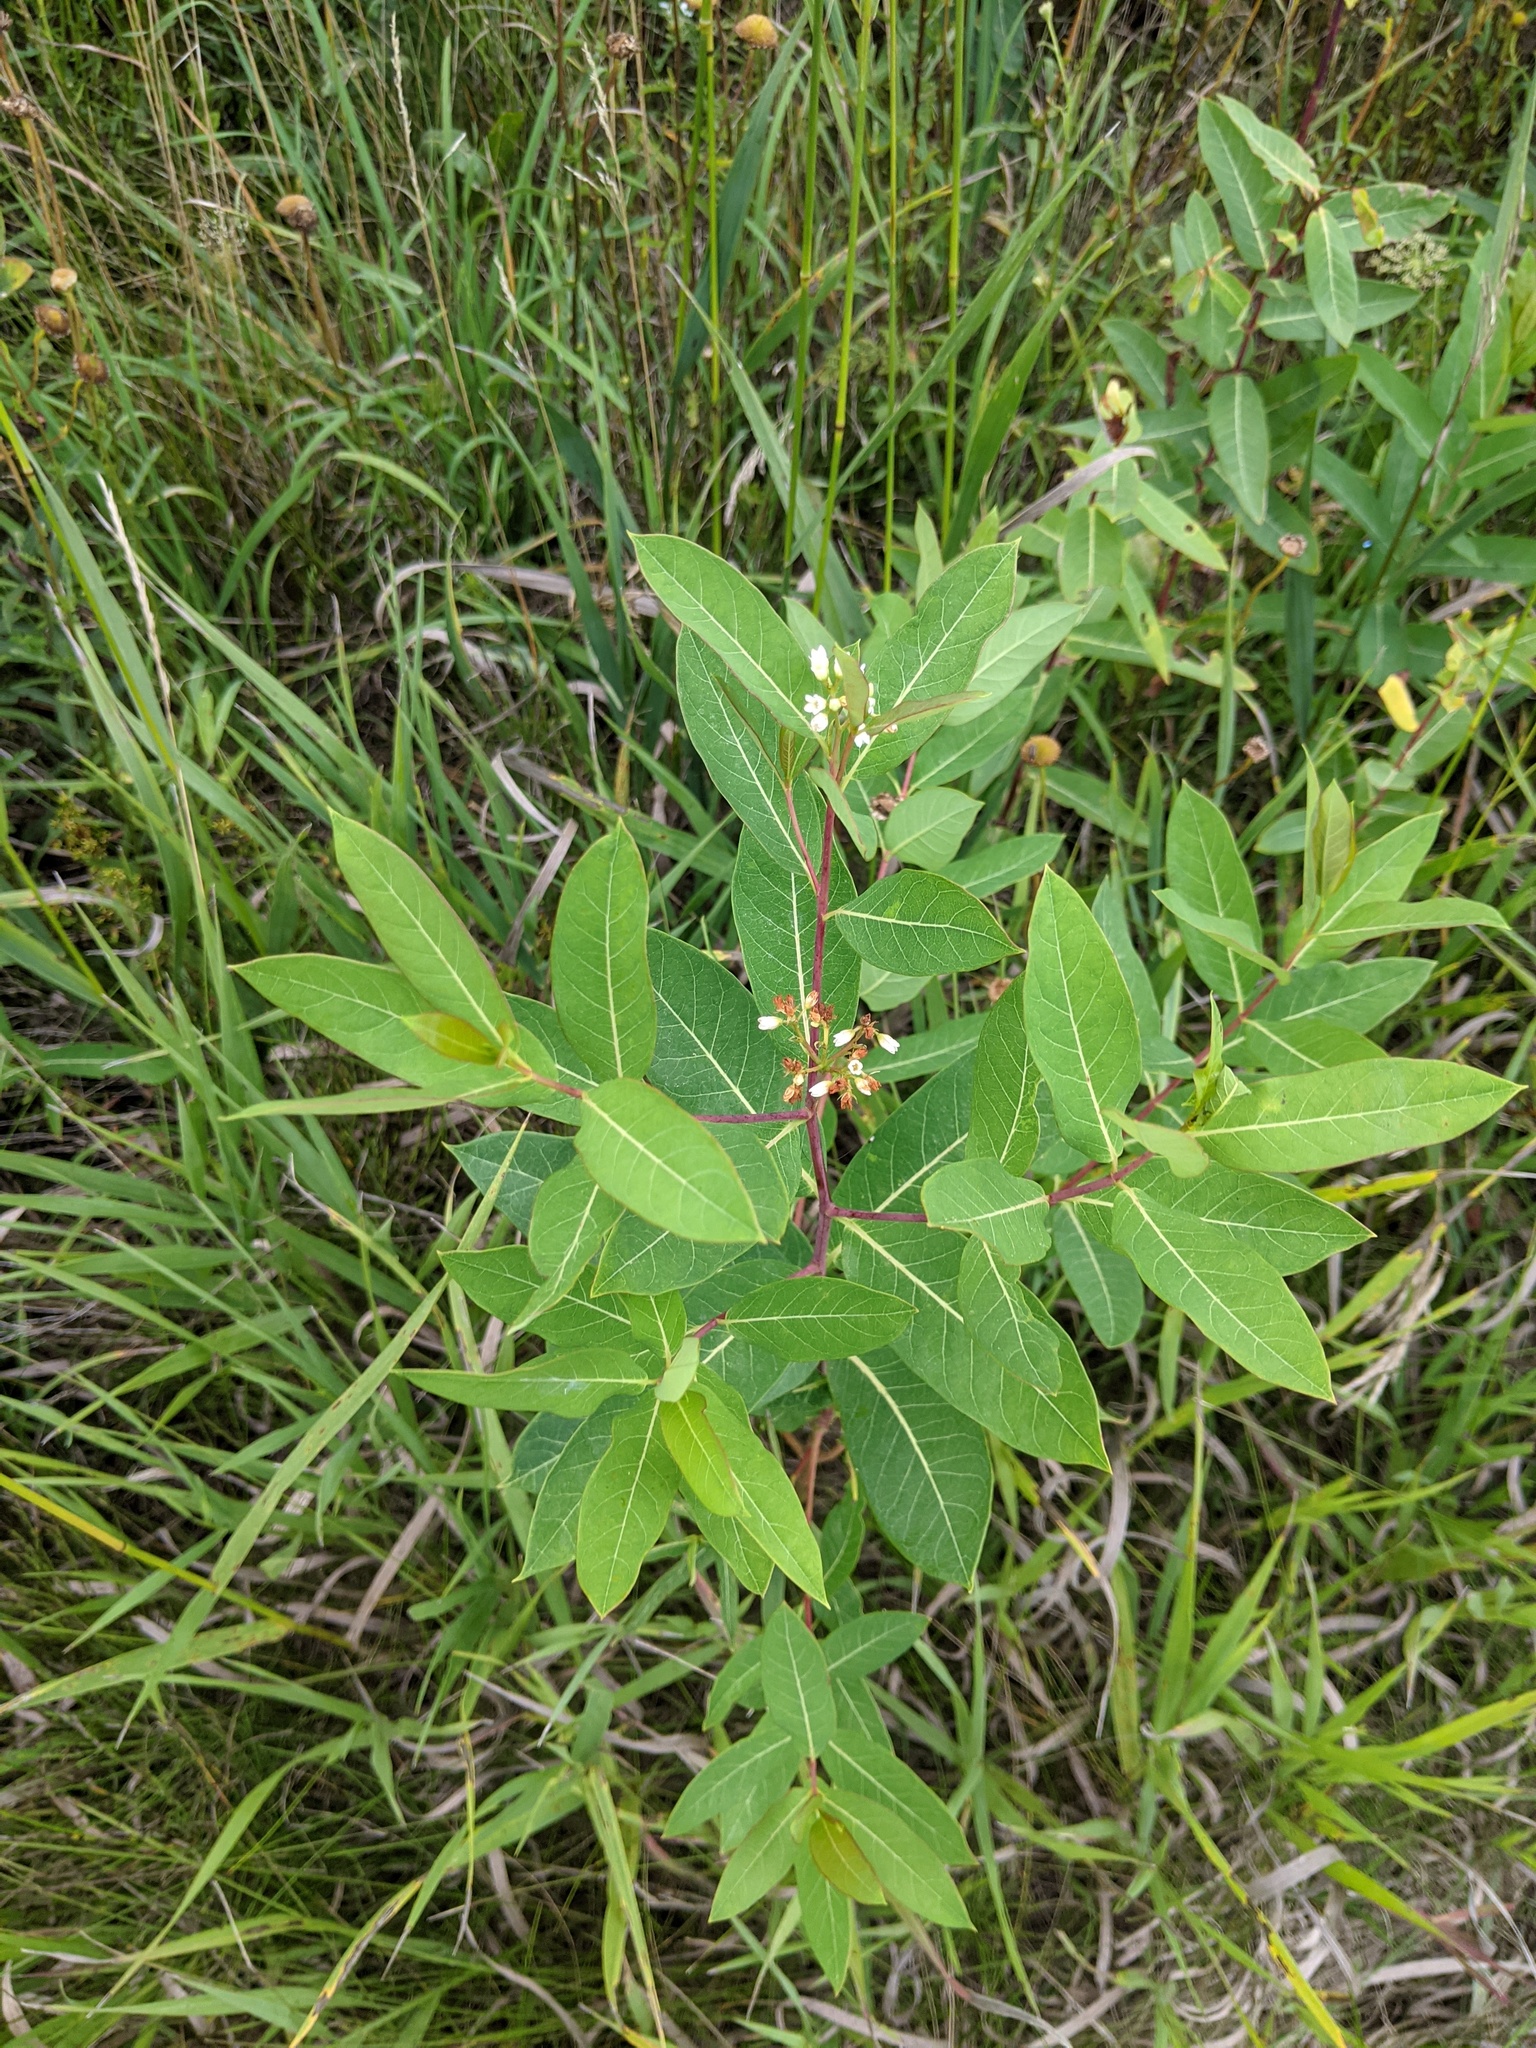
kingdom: Plantae
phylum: Tracheophyta
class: Magnoliopsida
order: Gentianales
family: Apocynaceae
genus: Apocynum
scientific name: Apocynum cannabinum
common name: Hemp dogbane
